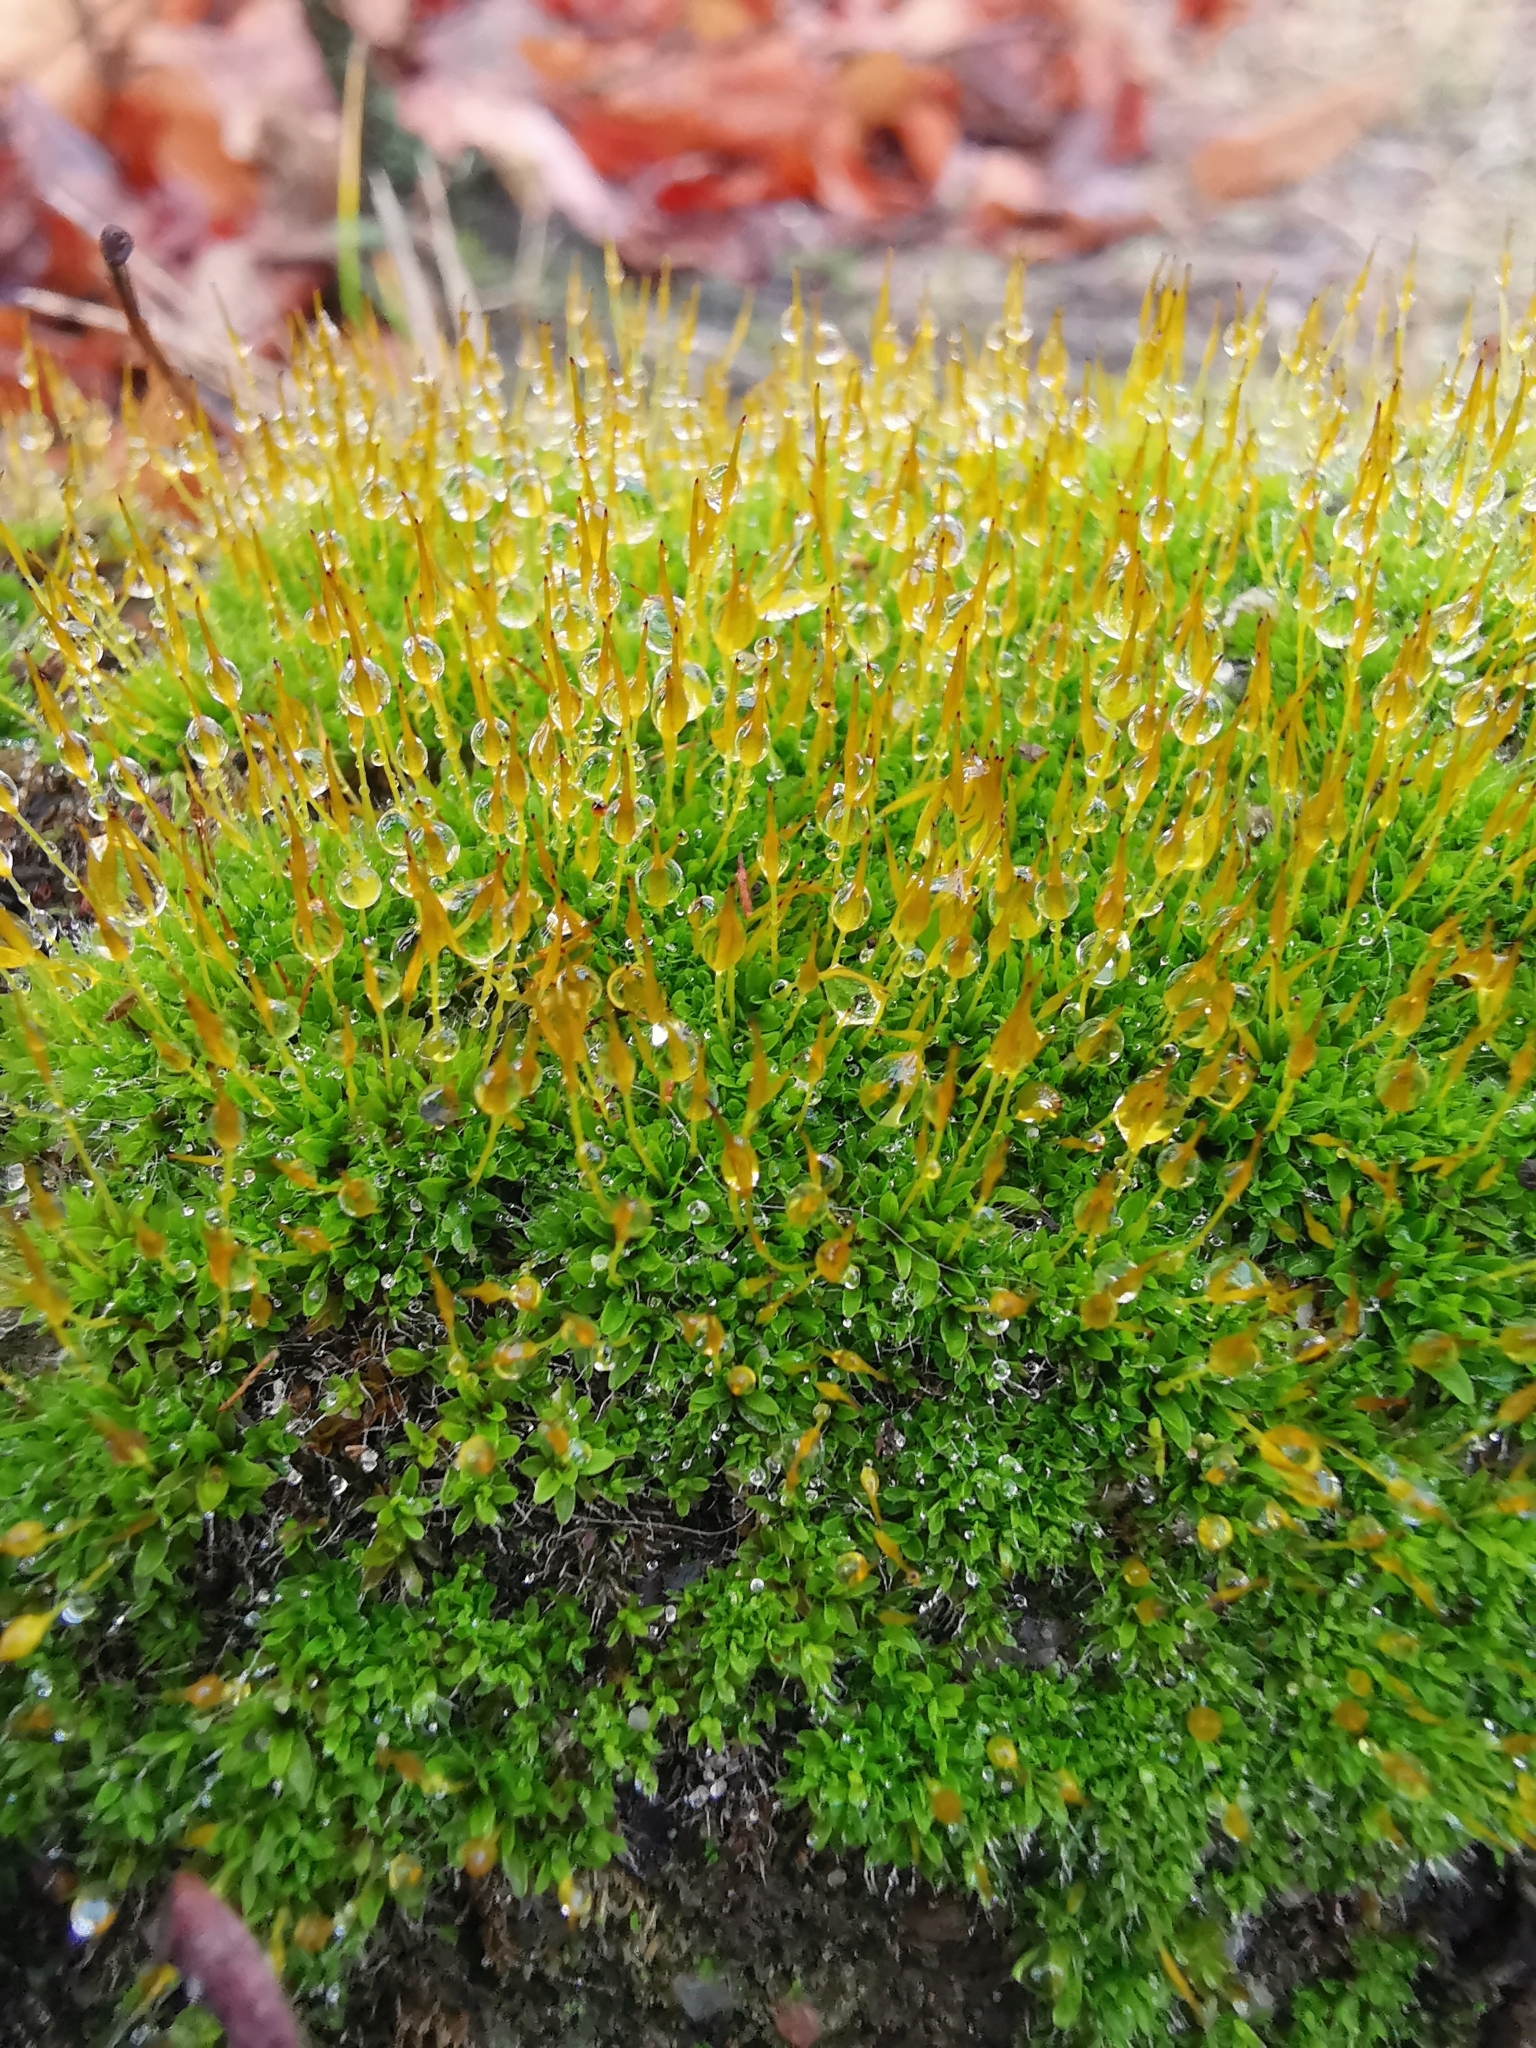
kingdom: Plantae
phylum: Bryophyta
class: Bryopsida
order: Pottiales
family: Pottiaceae
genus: Tortula
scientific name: Tortula muralis
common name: Wall screw-moss
